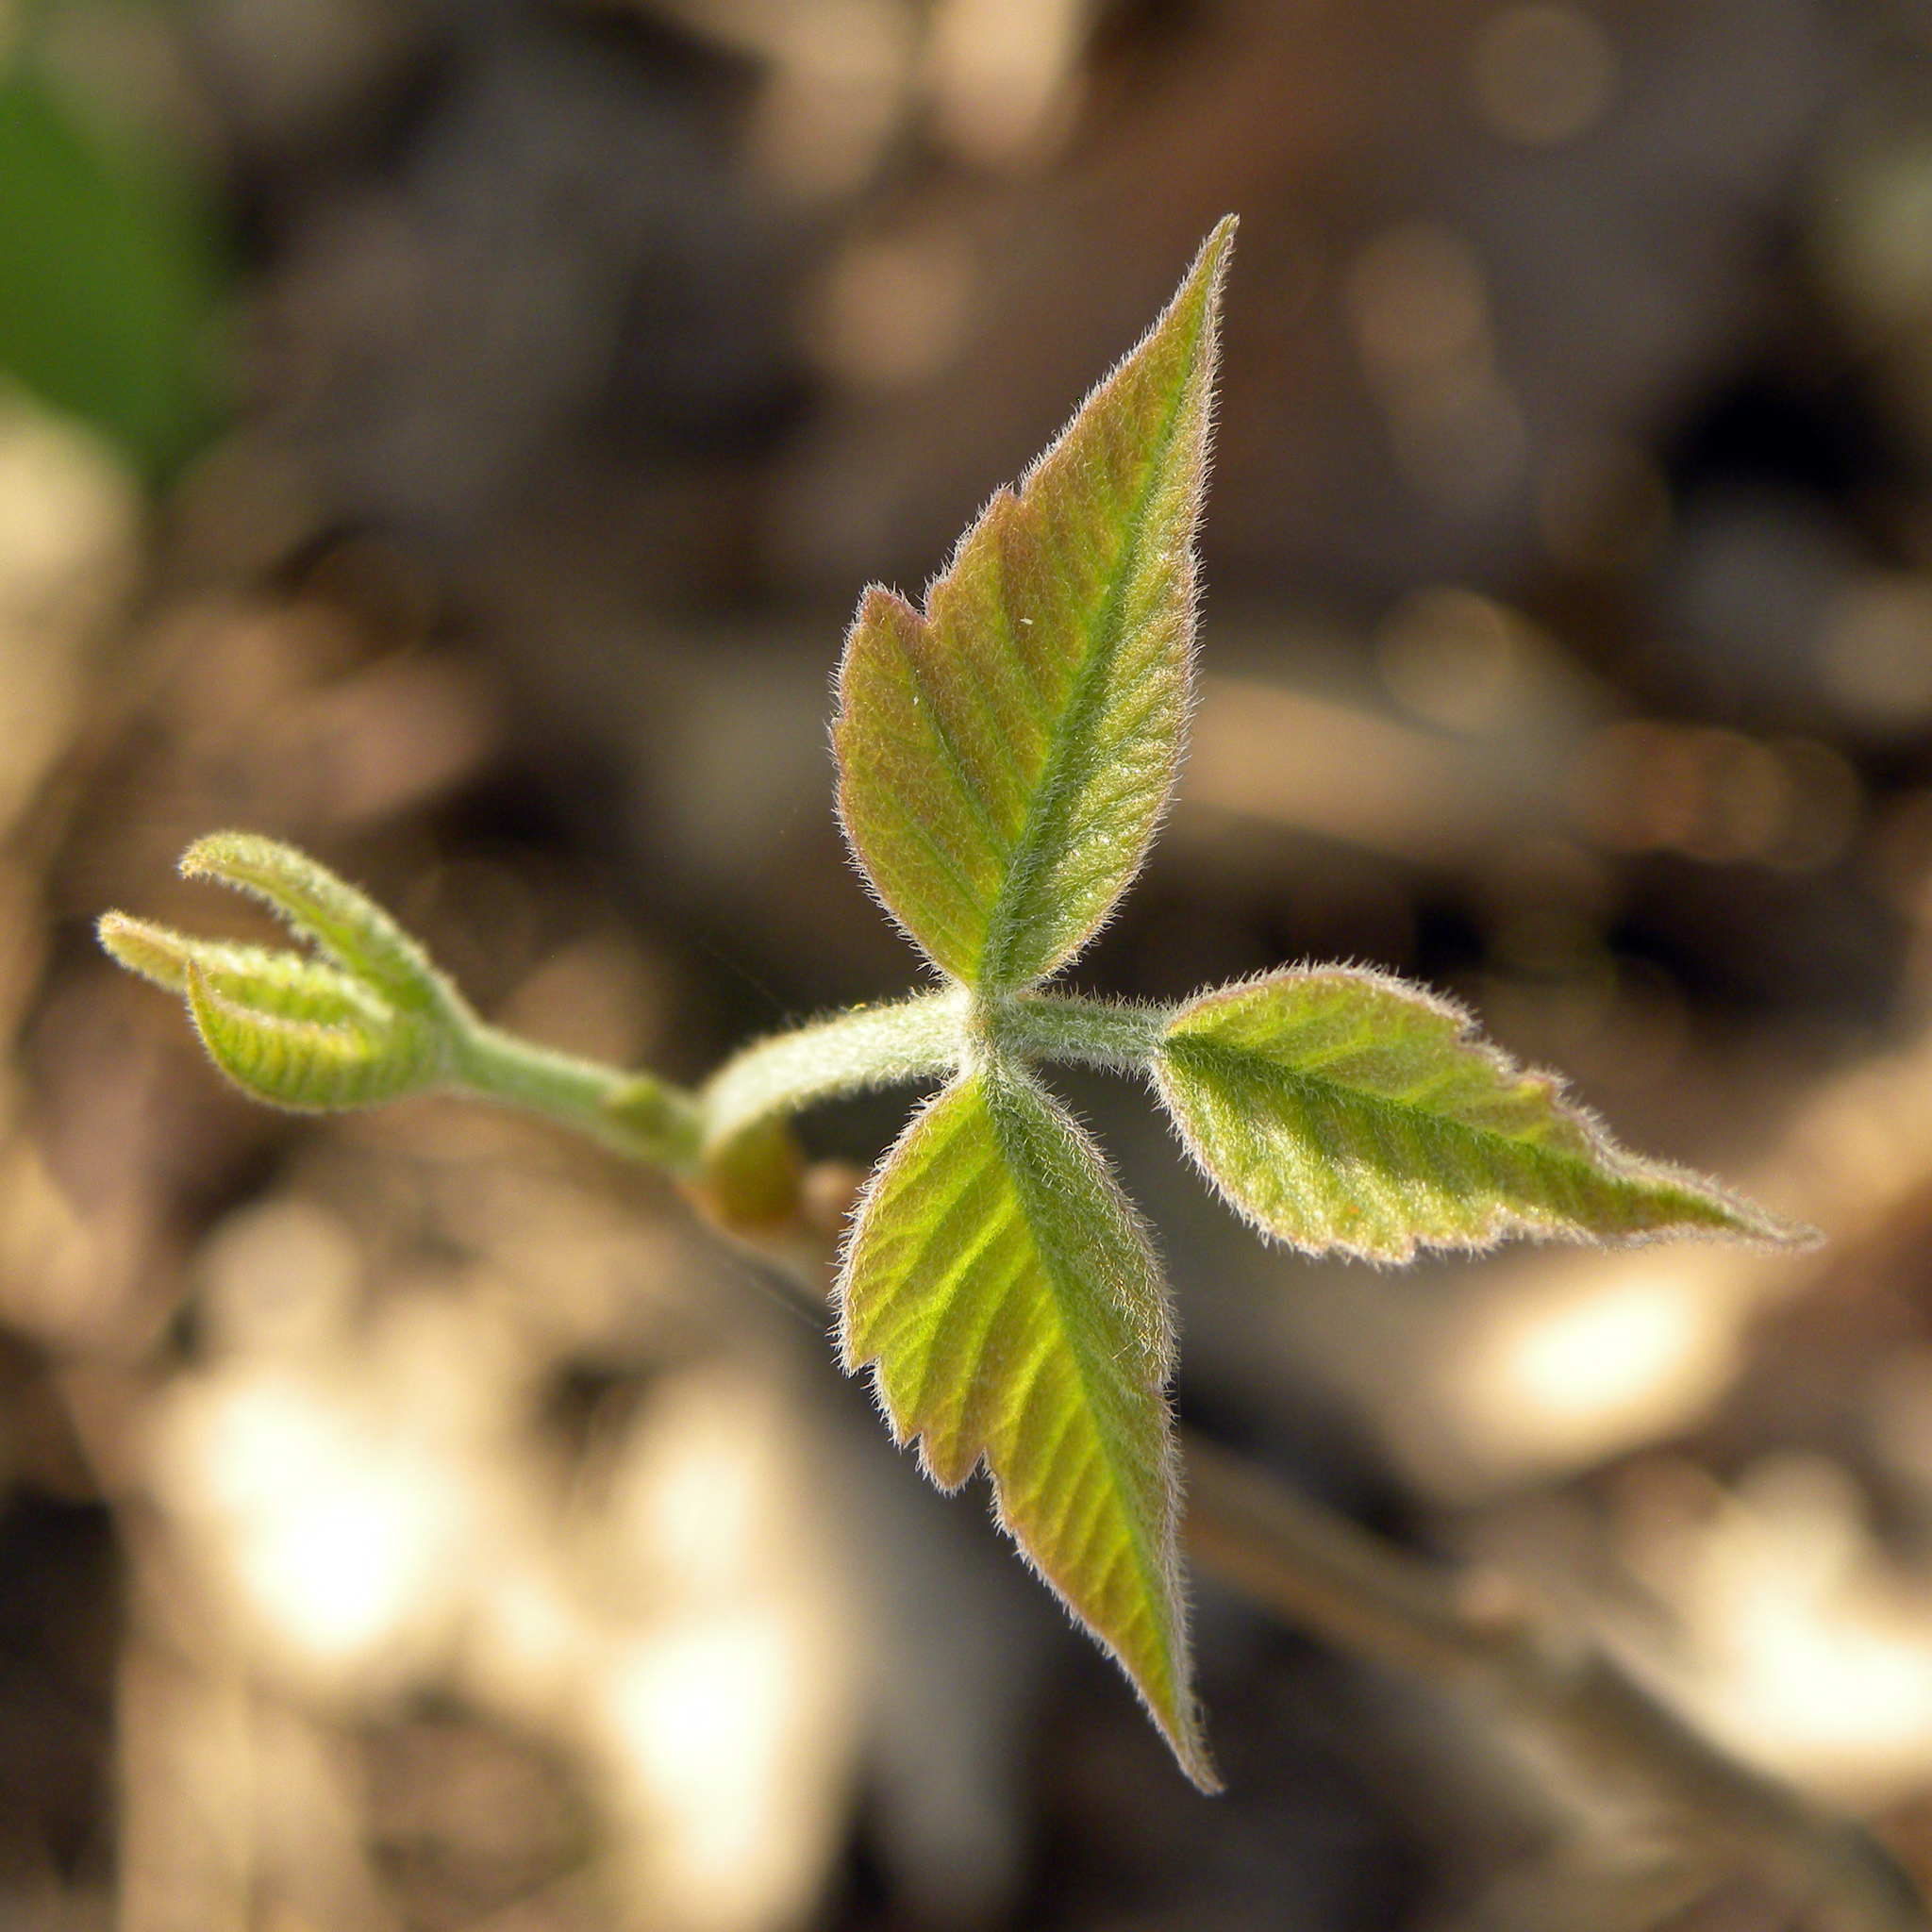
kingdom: Plantae
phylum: Tracheophyta
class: Magnoliopsida
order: Sapindales
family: Anacardiaceae
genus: Toxicodendron
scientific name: Toxicodendron radicans
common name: Poison ivy
